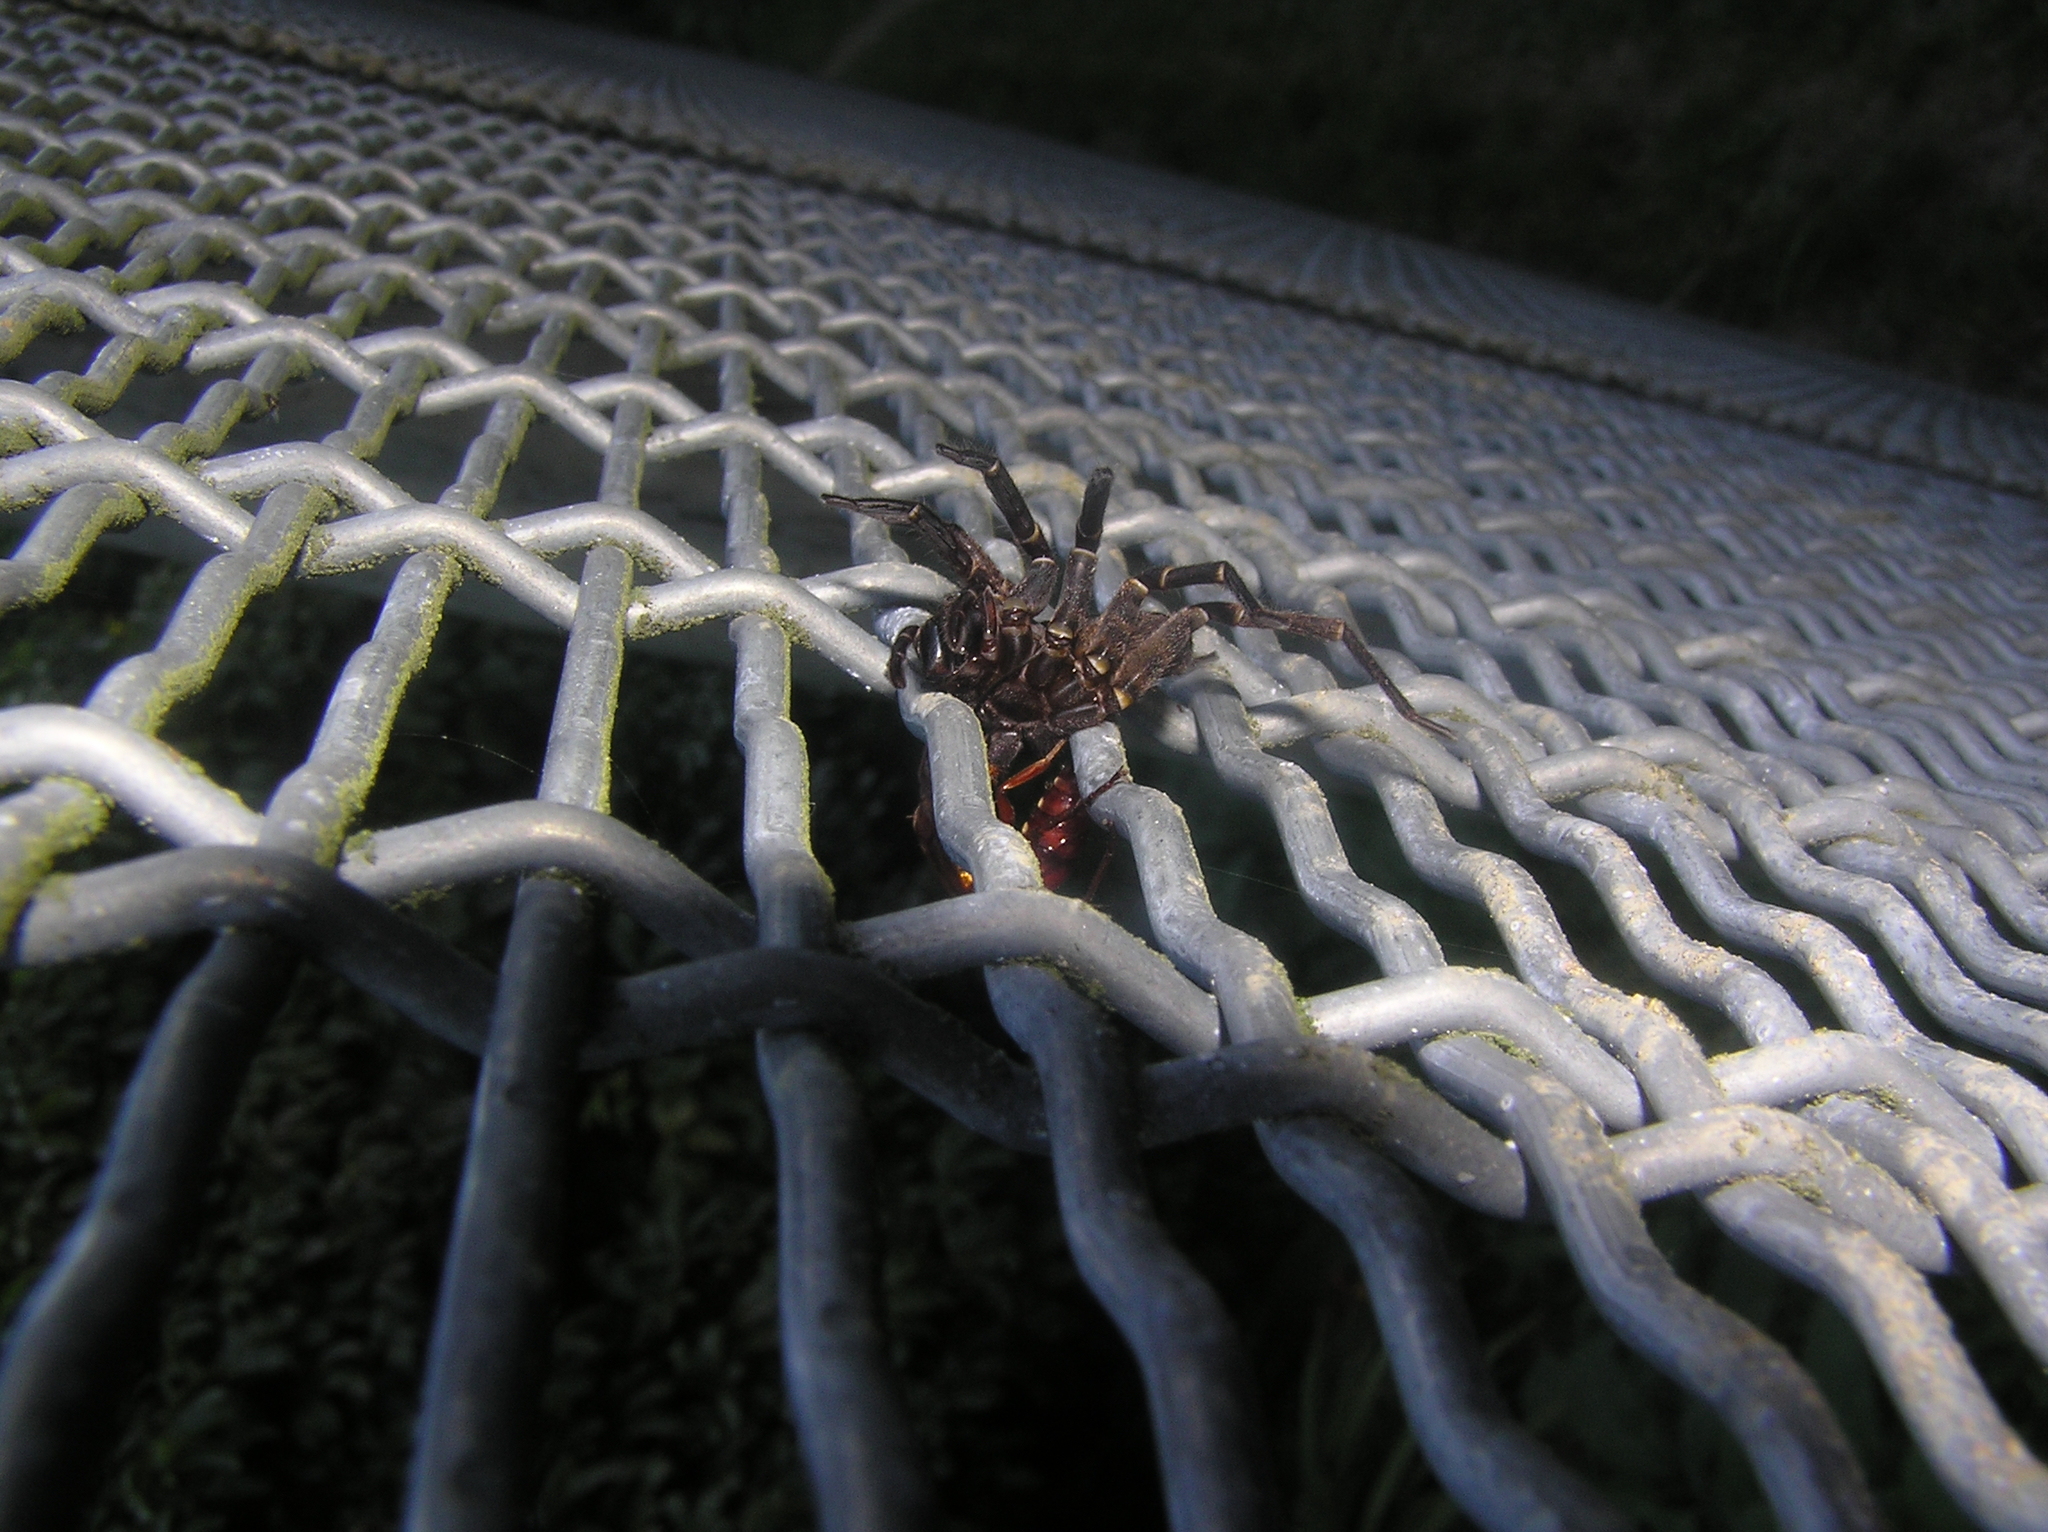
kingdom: Animalia
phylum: Arthropoda
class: Insecta
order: Hymenoptera
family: Pompilidae
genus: Sphictostethus
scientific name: Sphictostethus nitidus
